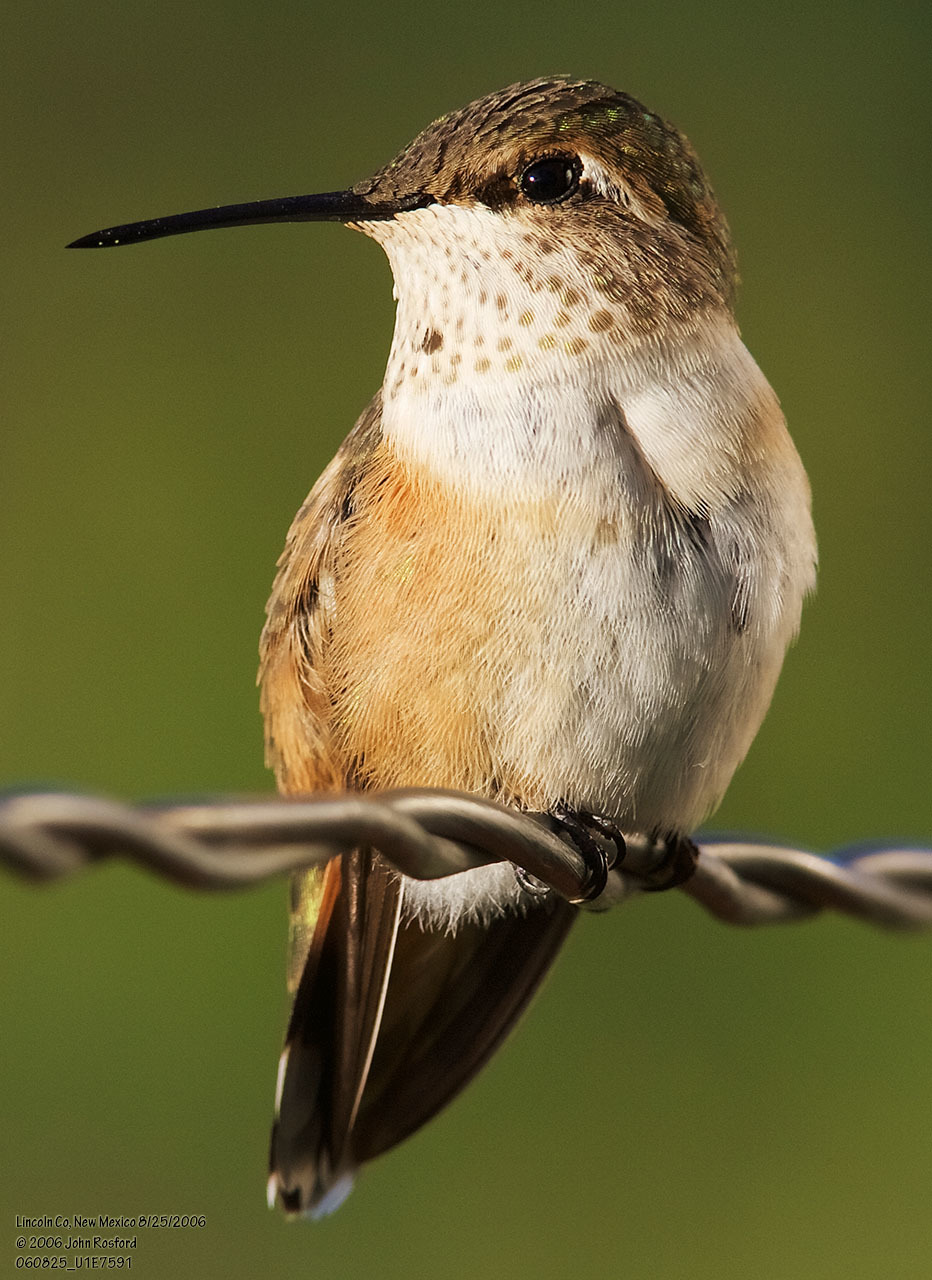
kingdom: Animalia
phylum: Chordata
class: Aves
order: Apodiformes
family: Trochilidae
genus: Selasphorus
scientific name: Selasphorus rufus
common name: Rufous hummingbird
